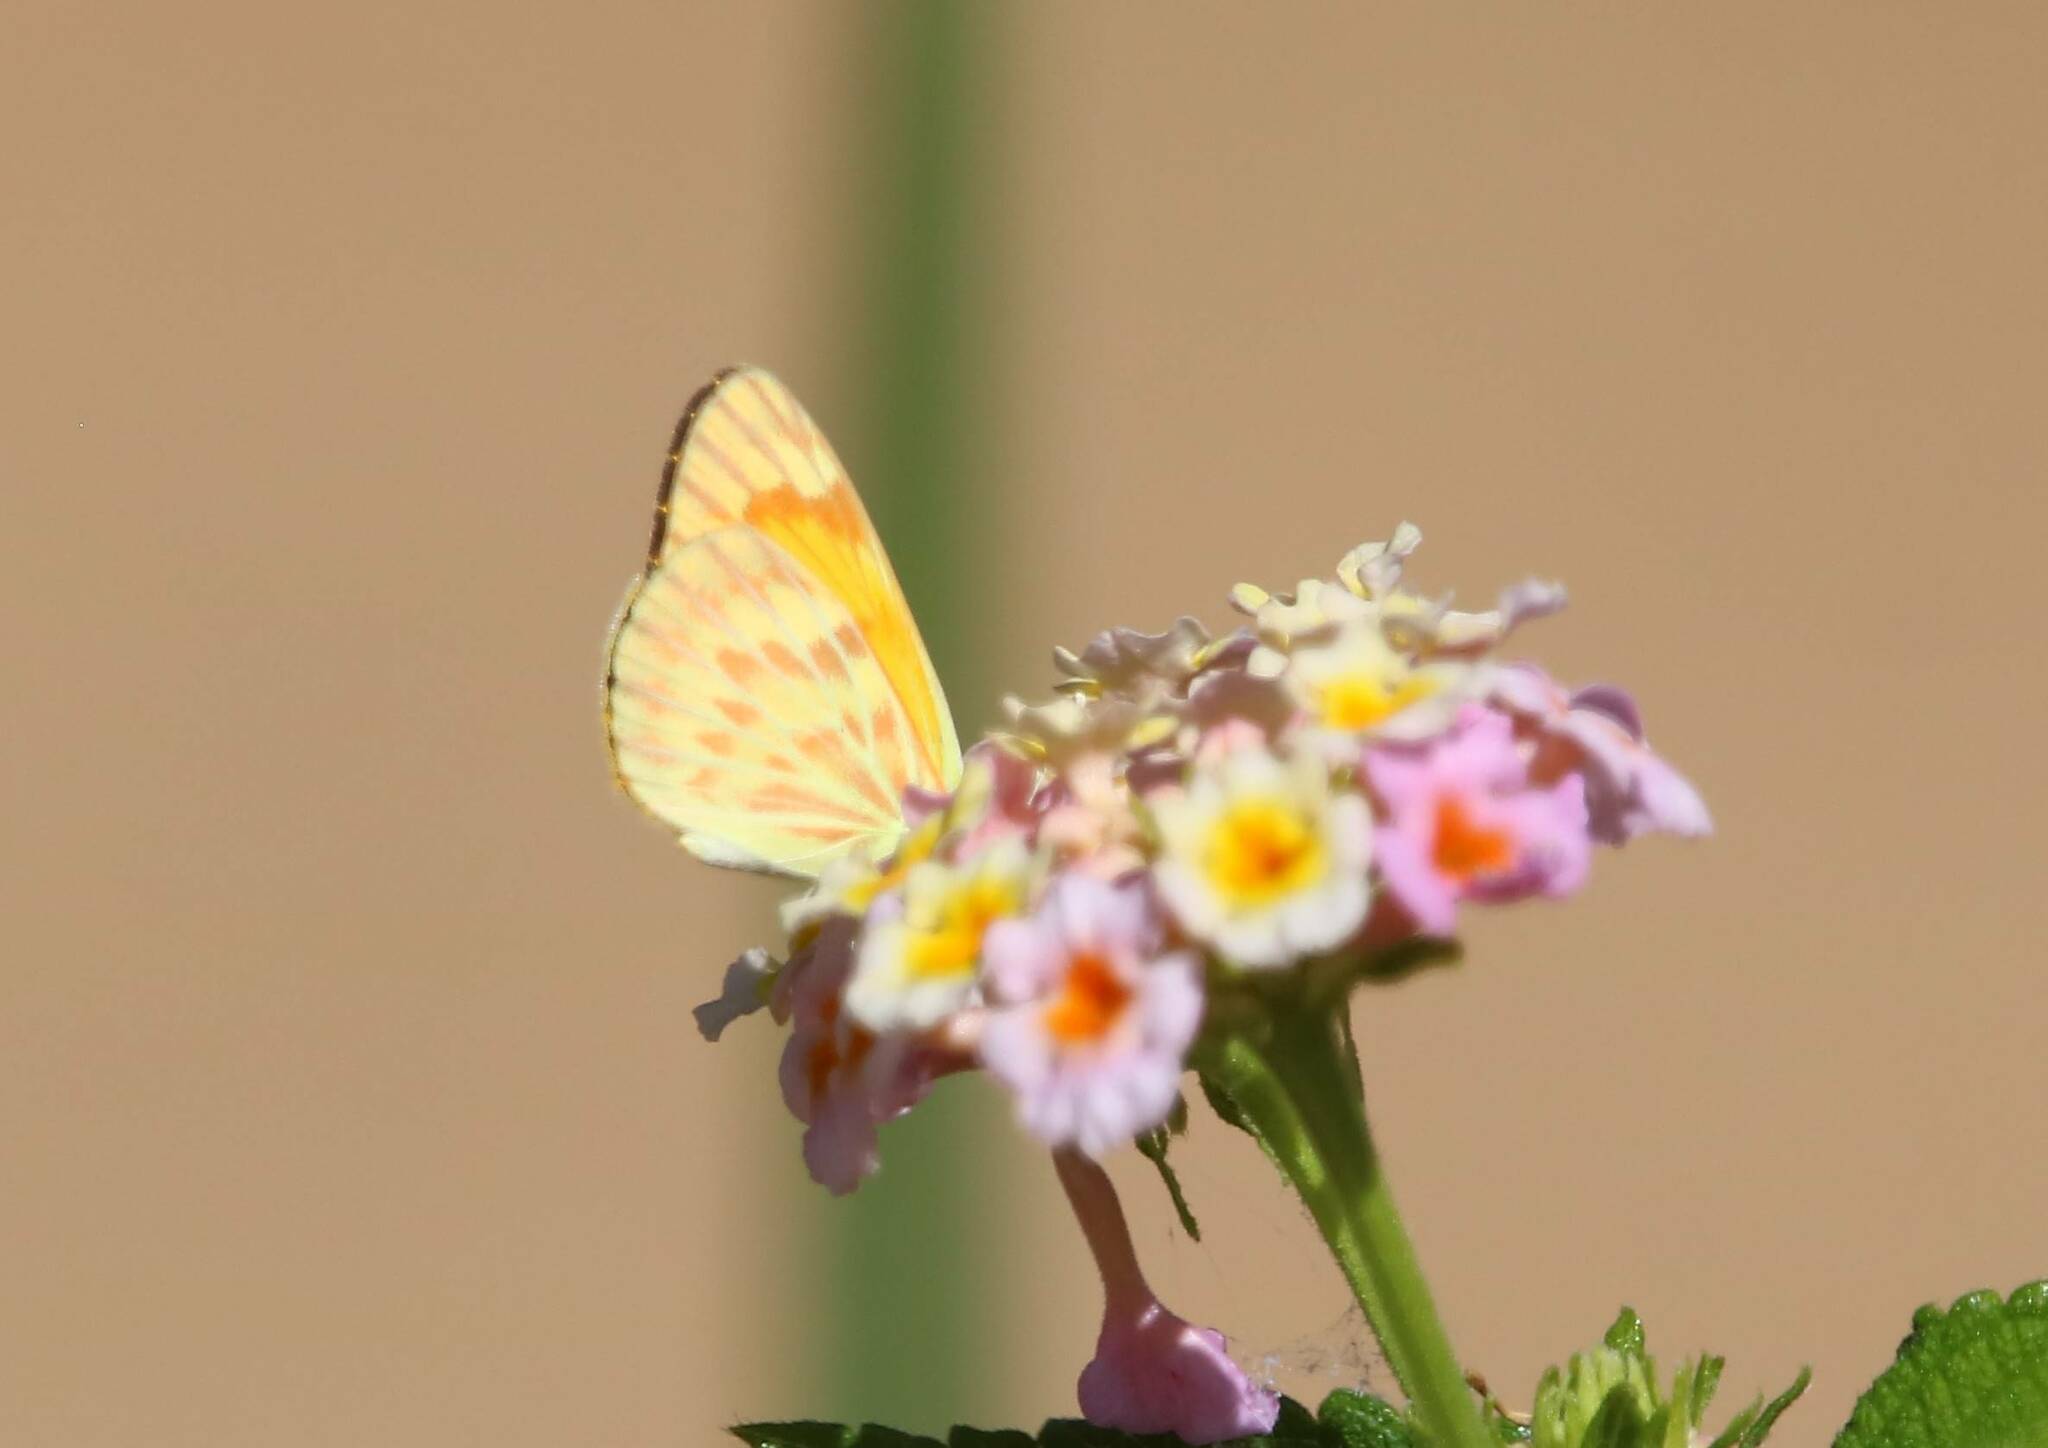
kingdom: Animalia
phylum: Arthropoda
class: Insecta
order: Lepidoptera
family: Pieridae
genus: Colotis
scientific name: Colotis chrysonome
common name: Golden arab
